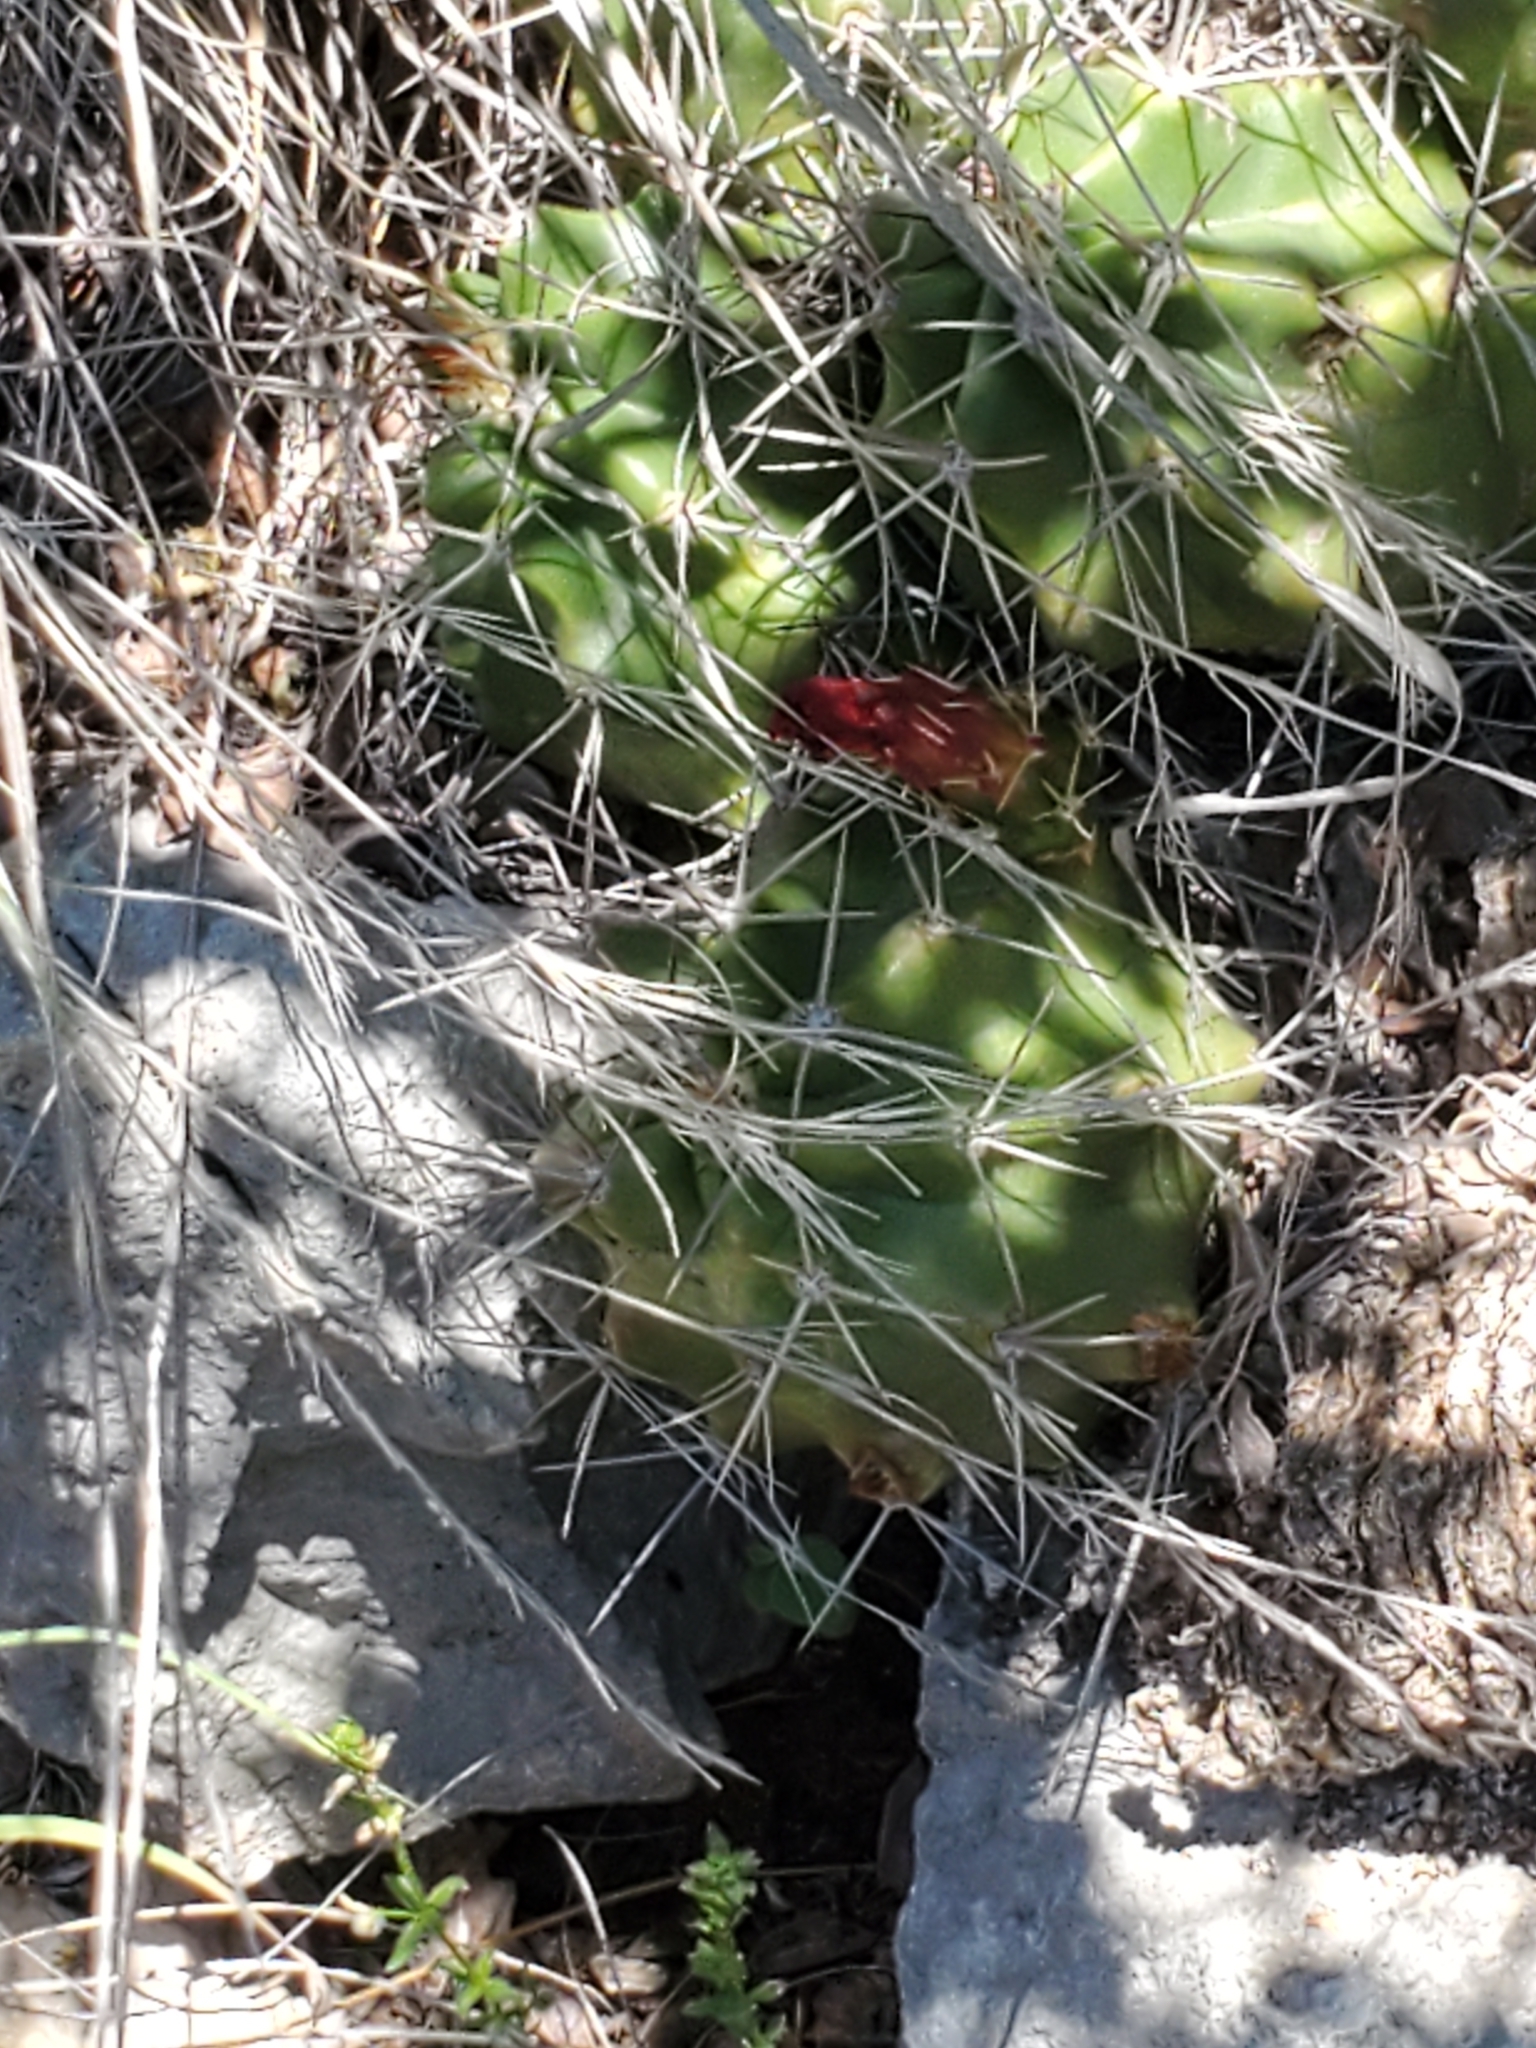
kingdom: Plantae
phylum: Tracheophyta
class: Magnoliopsida
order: Caryophyllales
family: Cactaceae
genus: Echinocereus
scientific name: Echinocereus coccineus
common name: Scarlet hedgehog cactus
